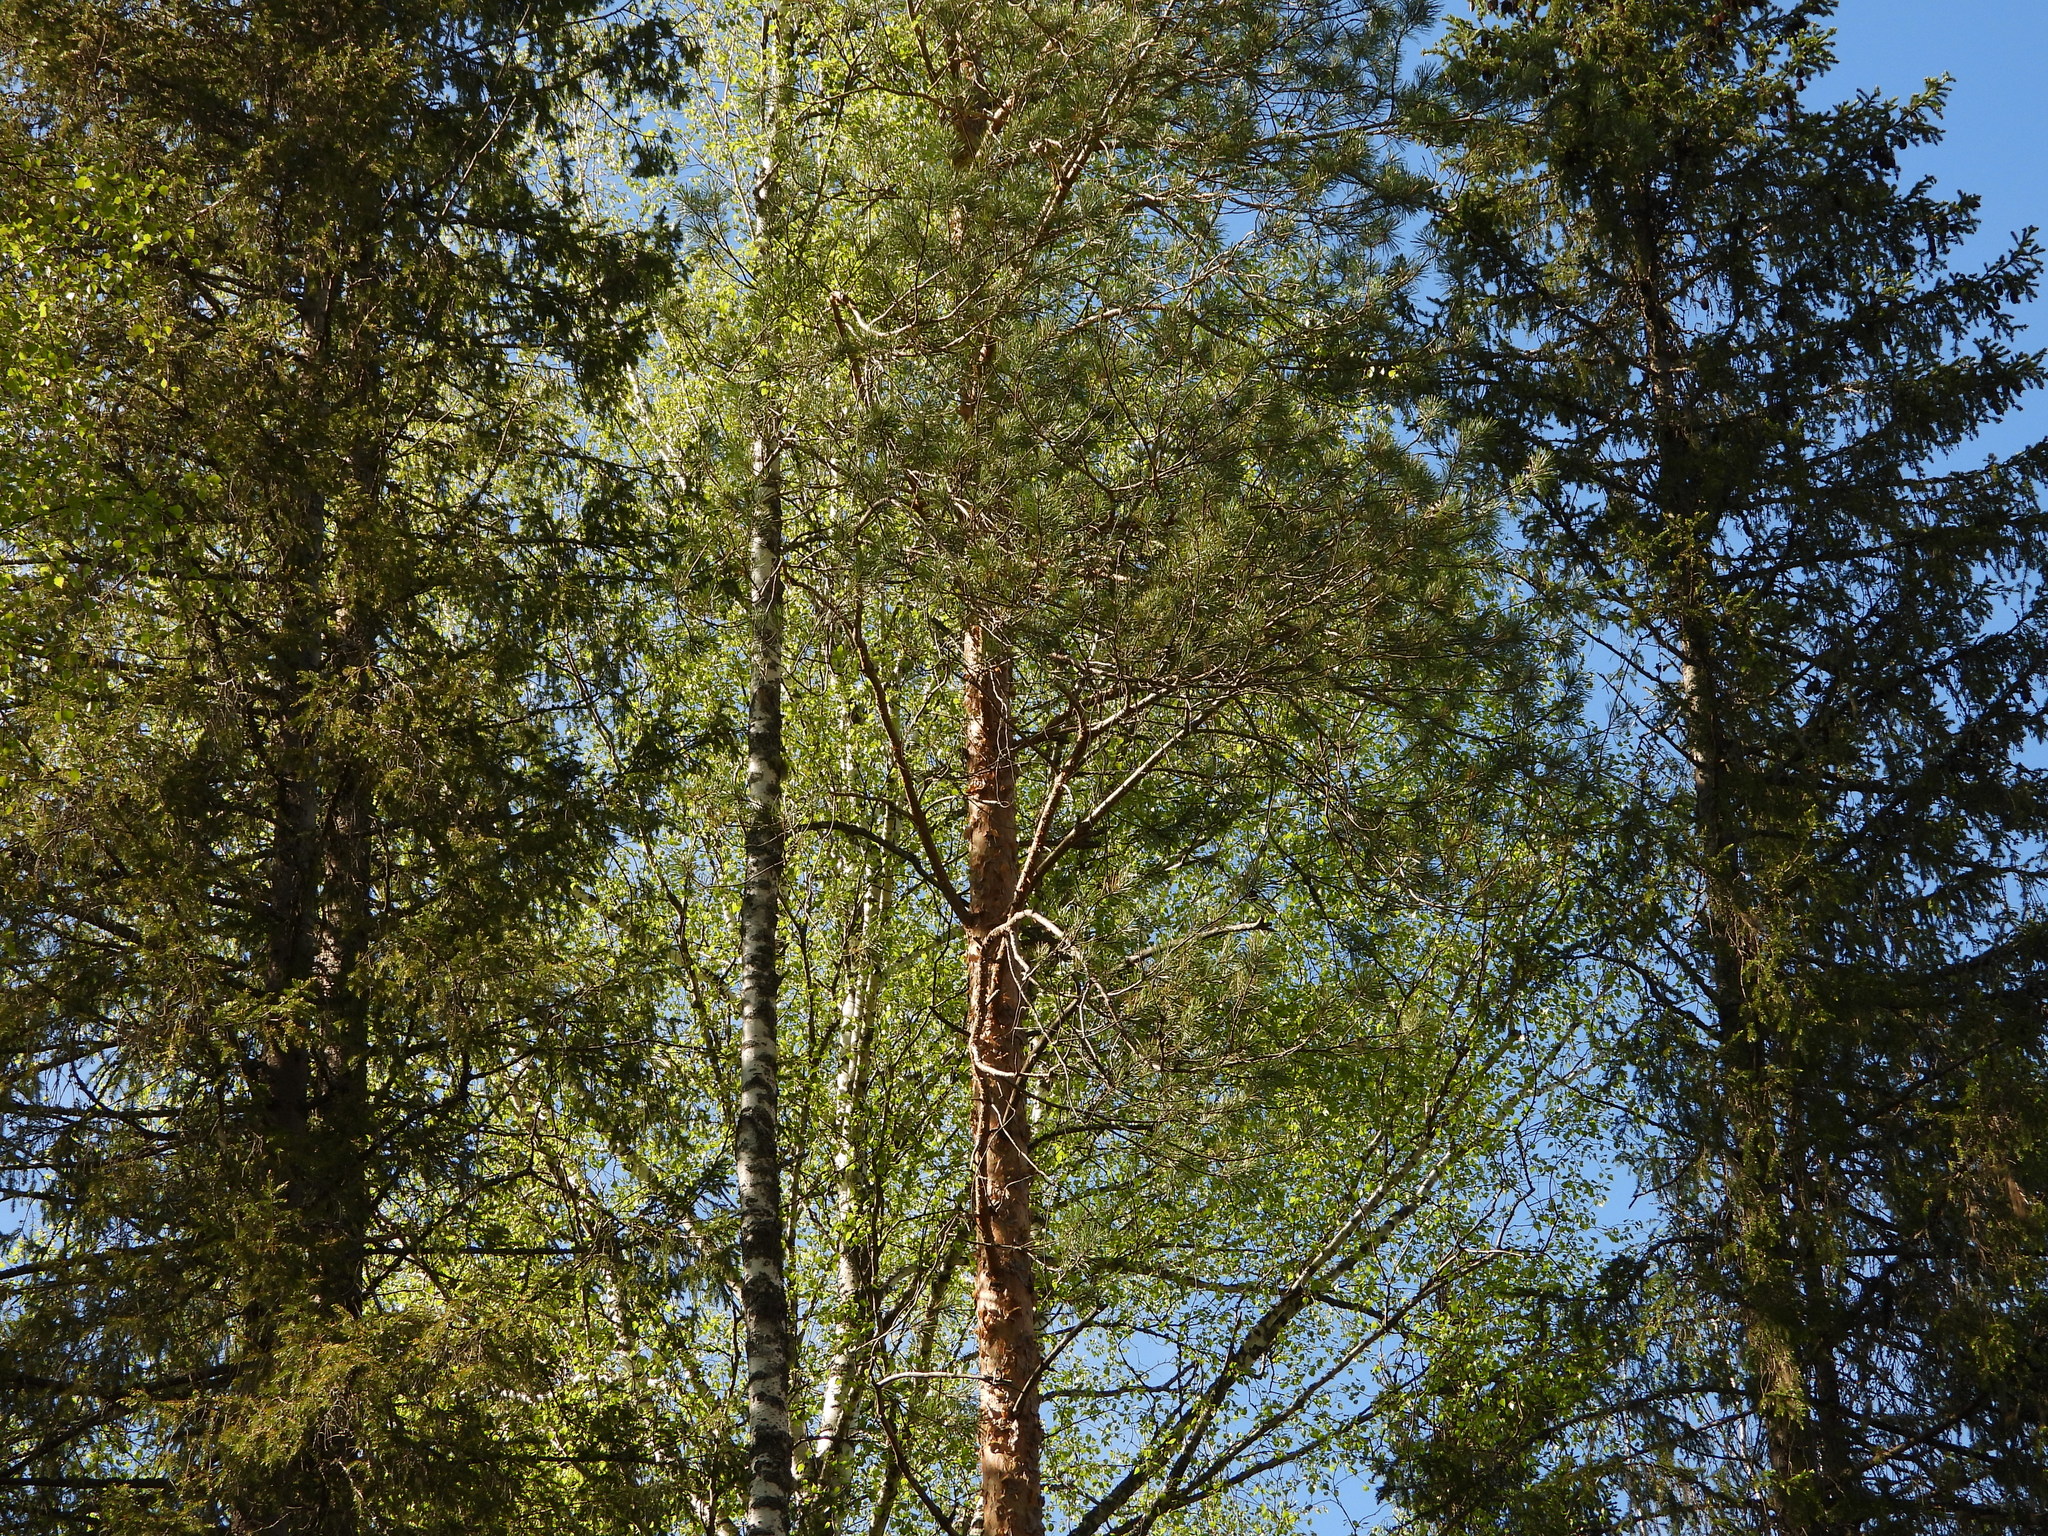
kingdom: Plantae
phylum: Tracheophyta
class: Pinopsida
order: Pinales
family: Pinaceae
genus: Pinus
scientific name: Pinus sylvestris
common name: Scots pine
